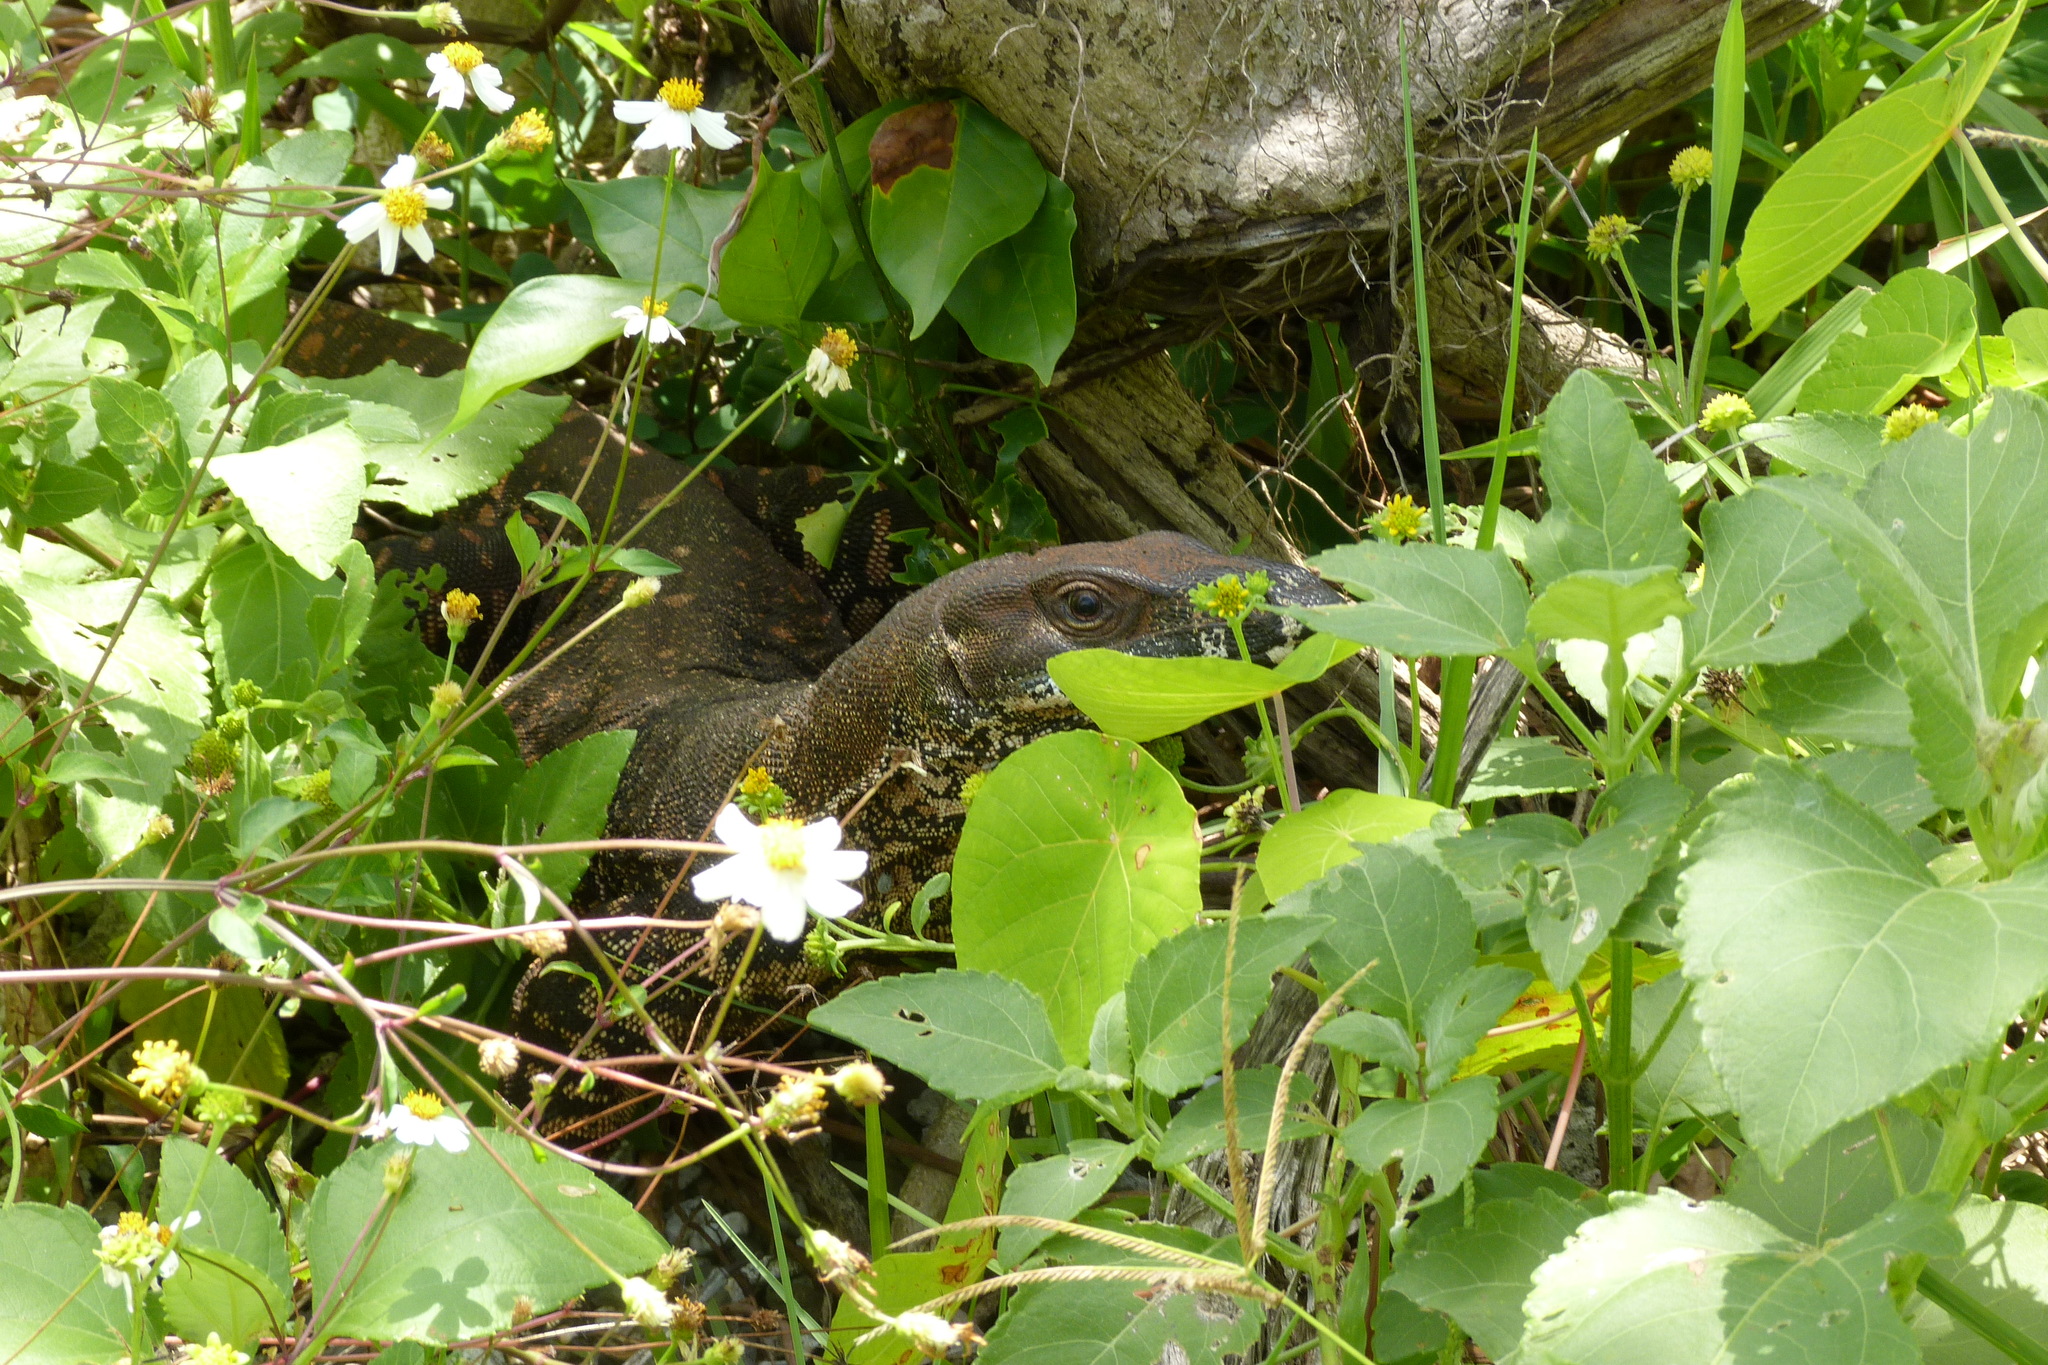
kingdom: Animalia
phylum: Chordata
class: Squamata
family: Varanidae
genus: Varanus
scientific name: Varanus varius
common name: Lace monitor
